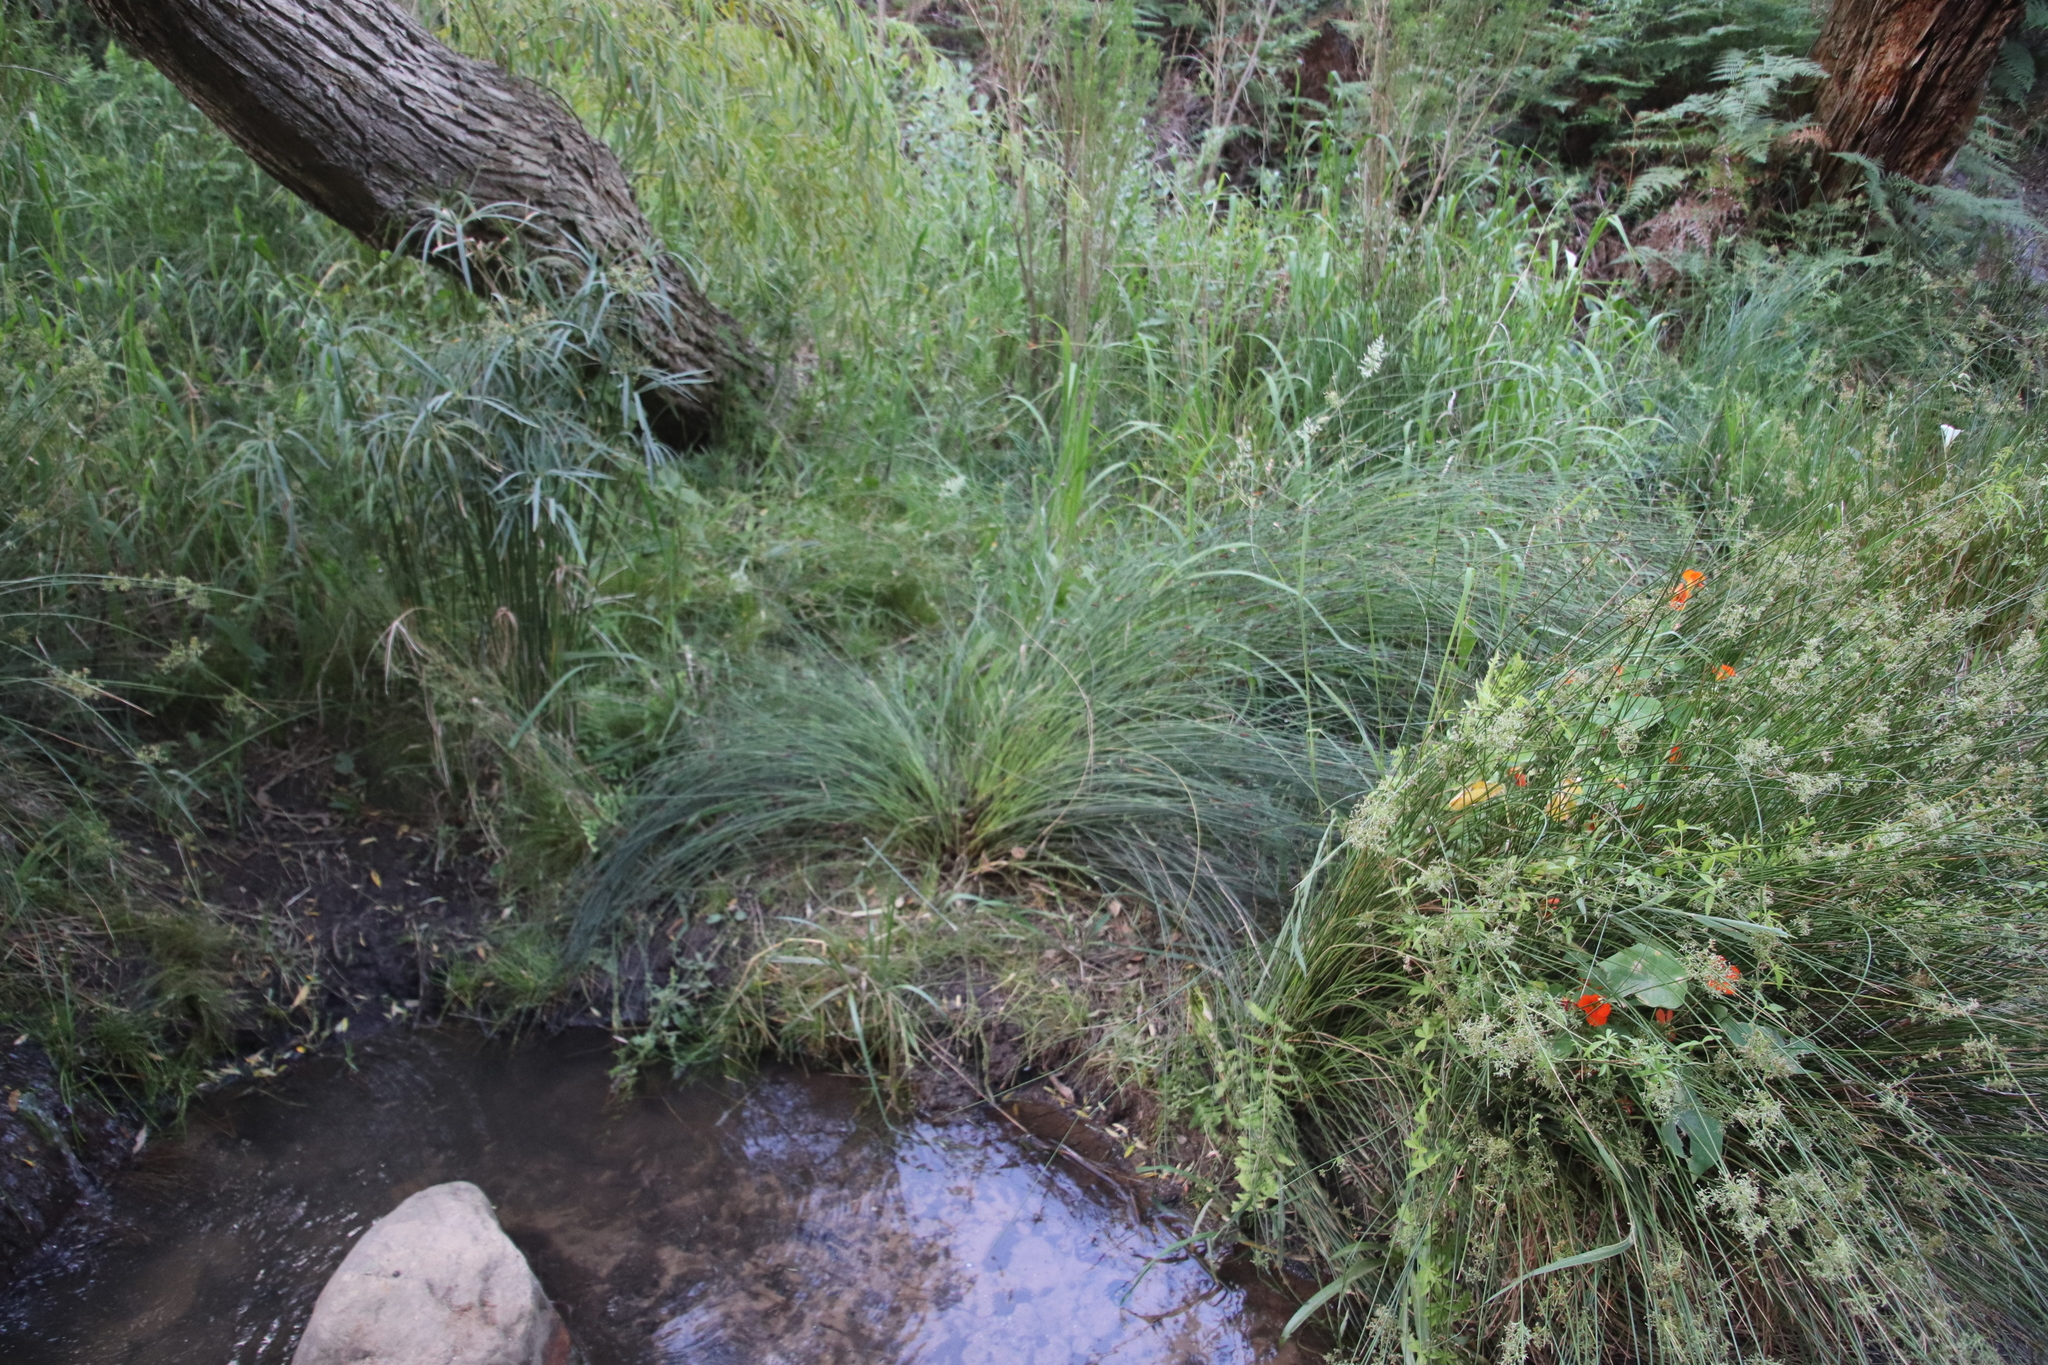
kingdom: Plantae
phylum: Tracheophyta
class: Liliopsida
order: Poales
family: Restionaceae
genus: Elegia
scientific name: Elegia tectorum
